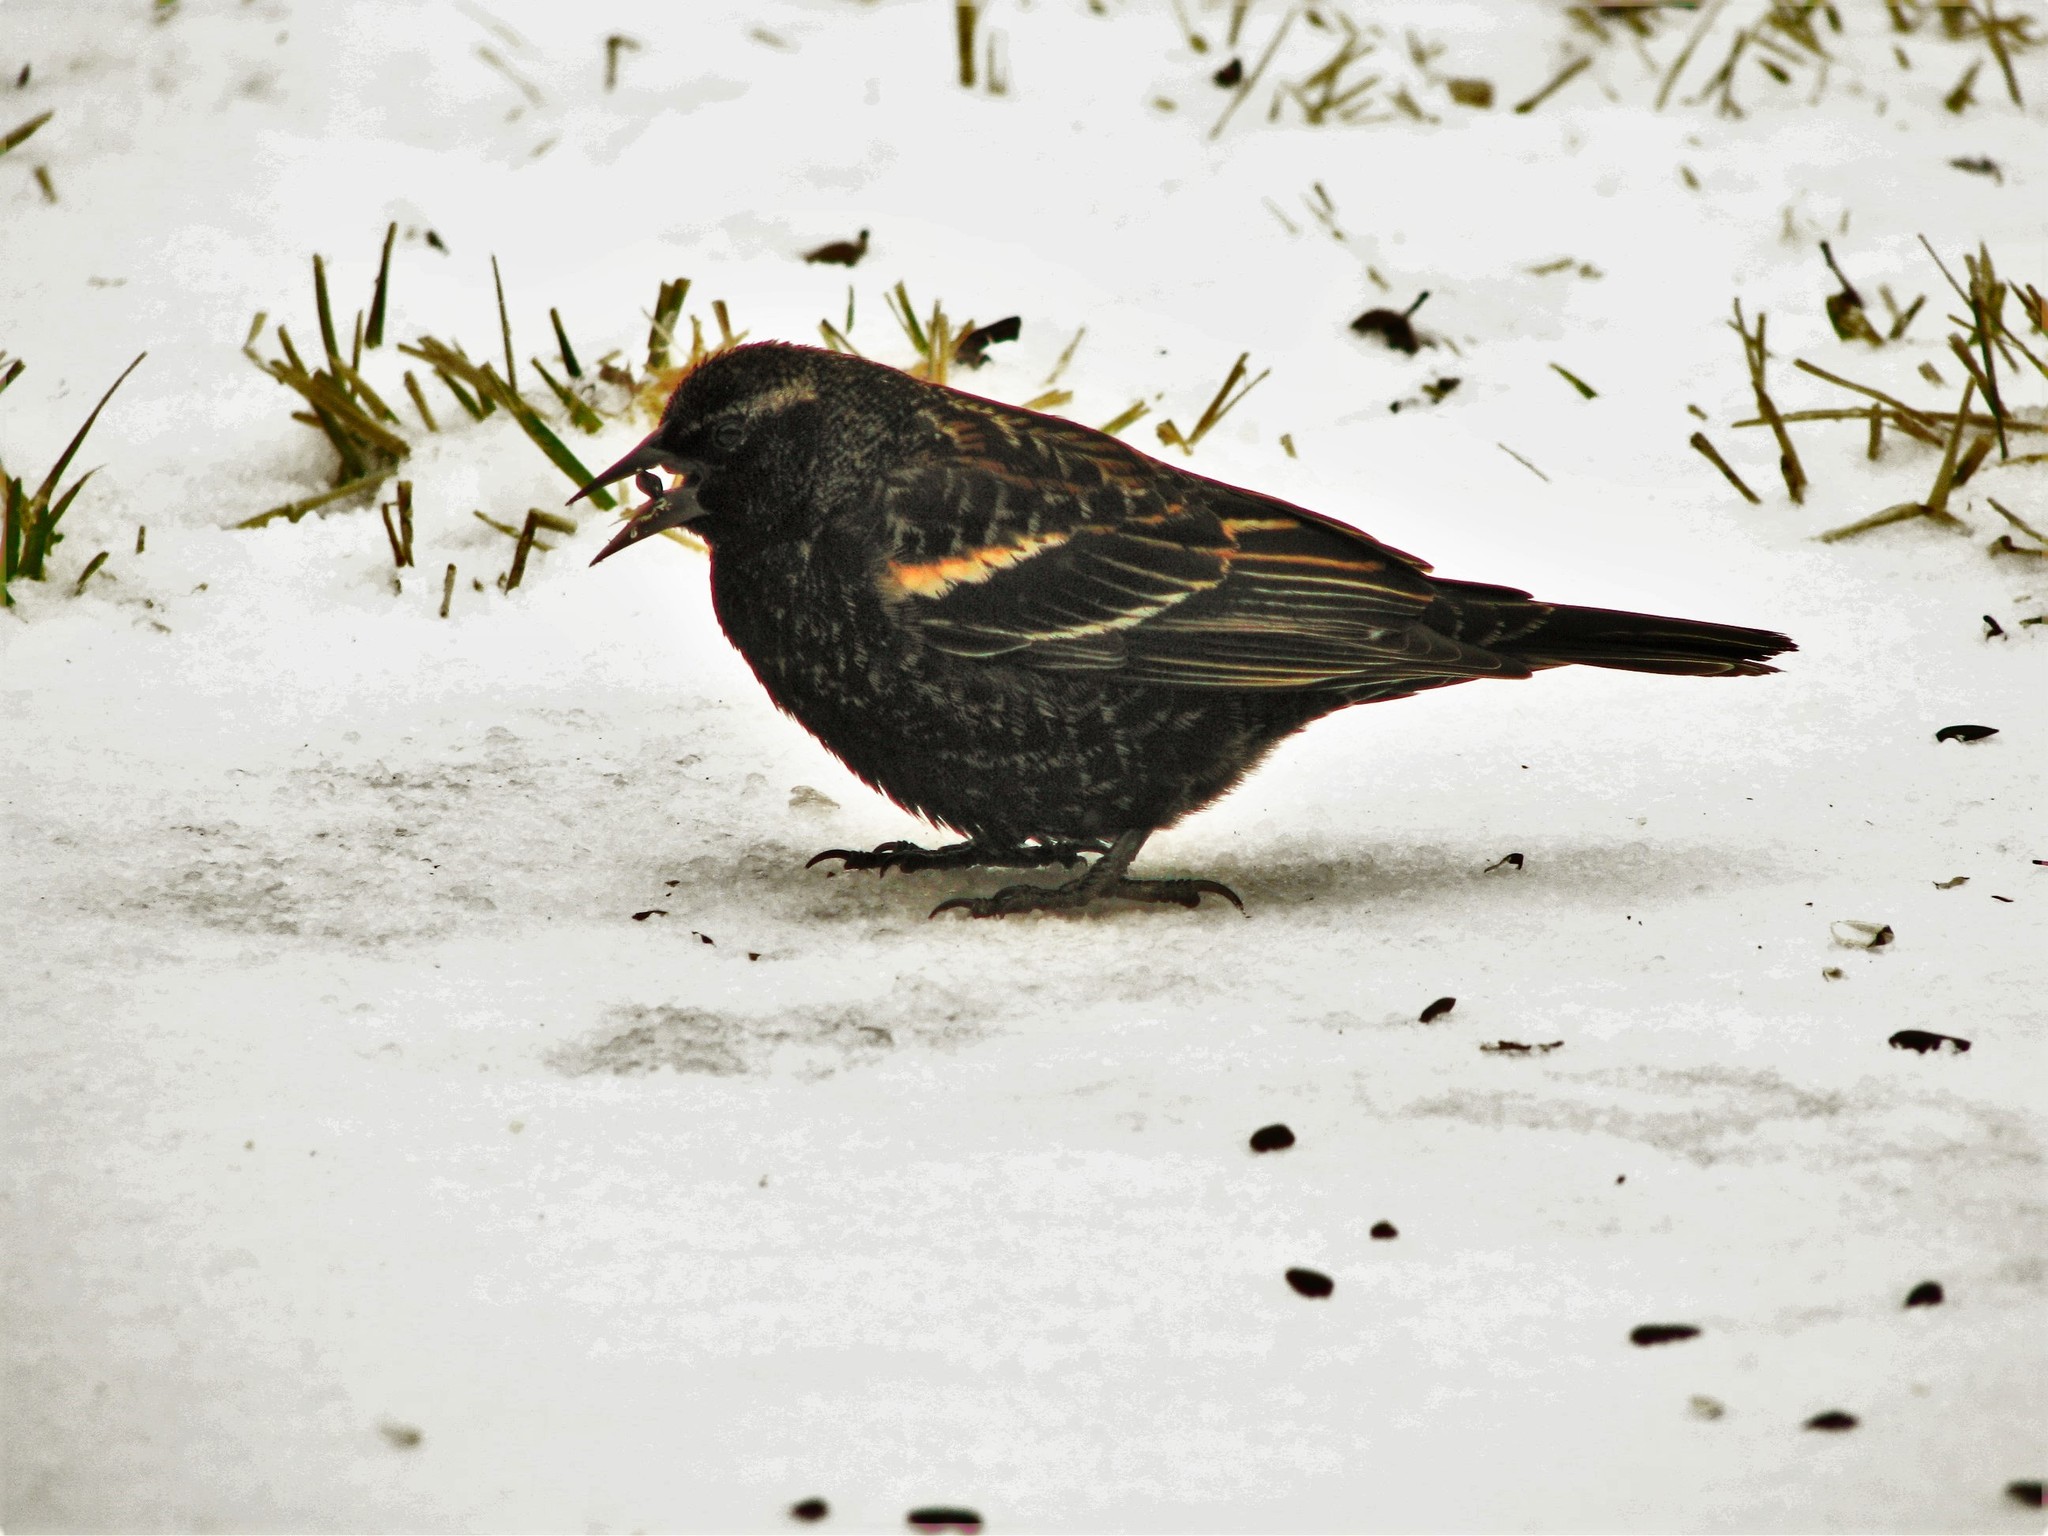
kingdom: Animalia
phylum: Chordata
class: Aves
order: Passeriformes
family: Icteridae
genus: Agelaius
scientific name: Agelaius phoeniceus
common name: Red-winged blackbird
